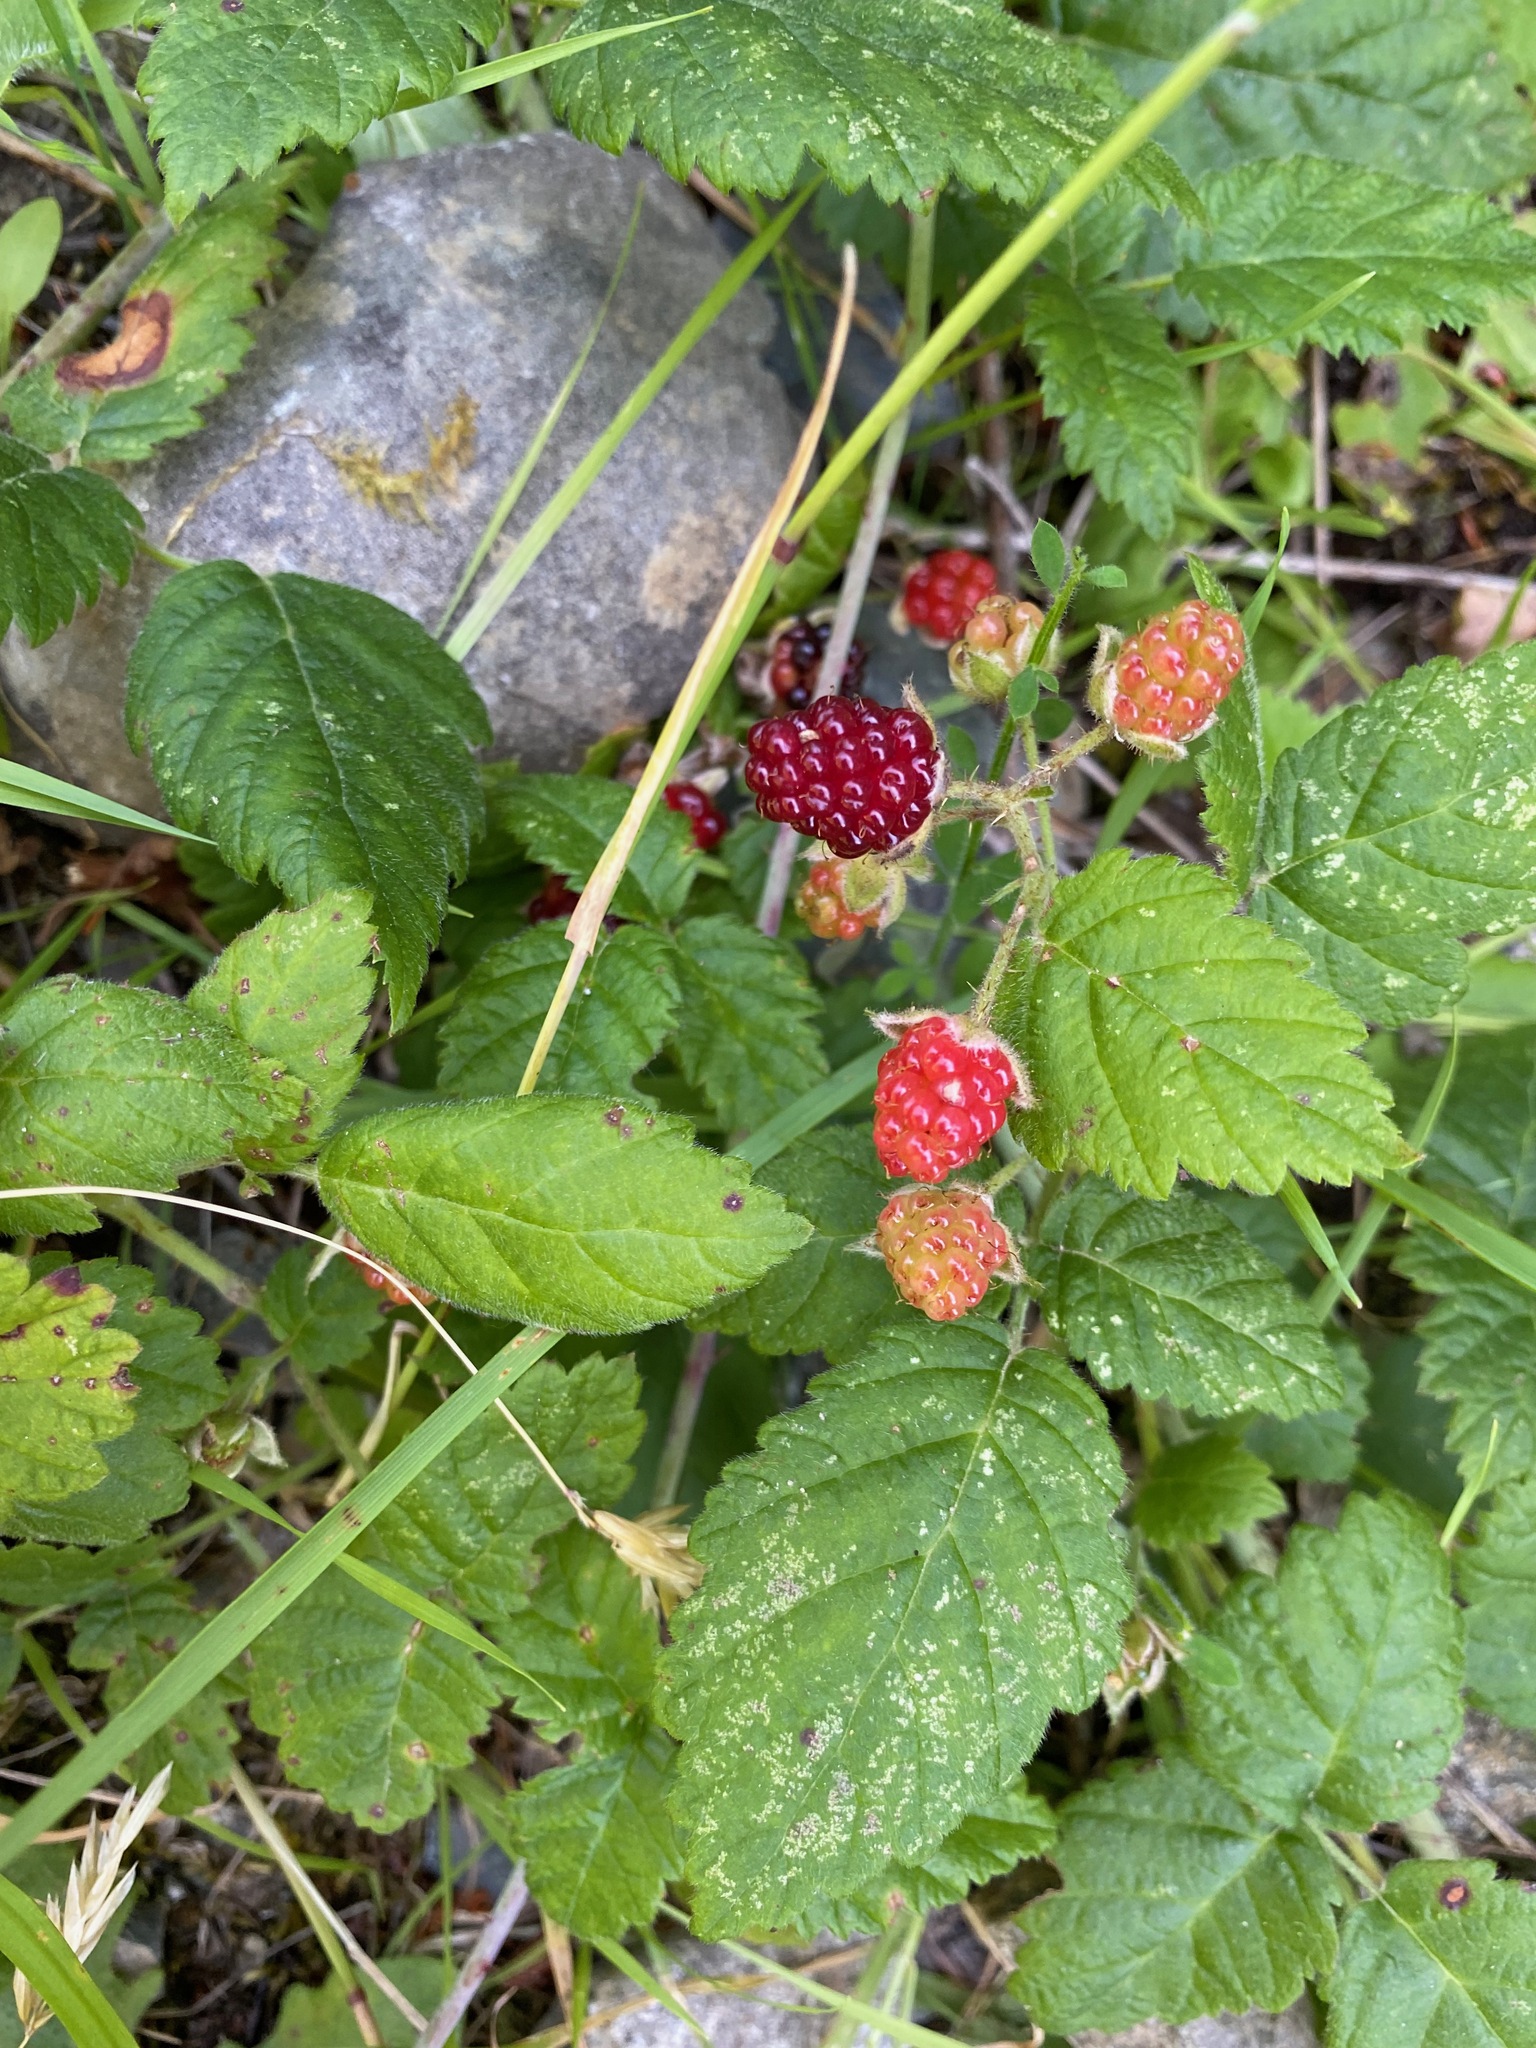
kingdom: Plantae
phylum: Tracheophyta
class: Magnoliopsida
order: Rosales
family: Rosaceae
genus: Rubus
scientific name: Rubus ursinus
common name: Pacific blackberry
